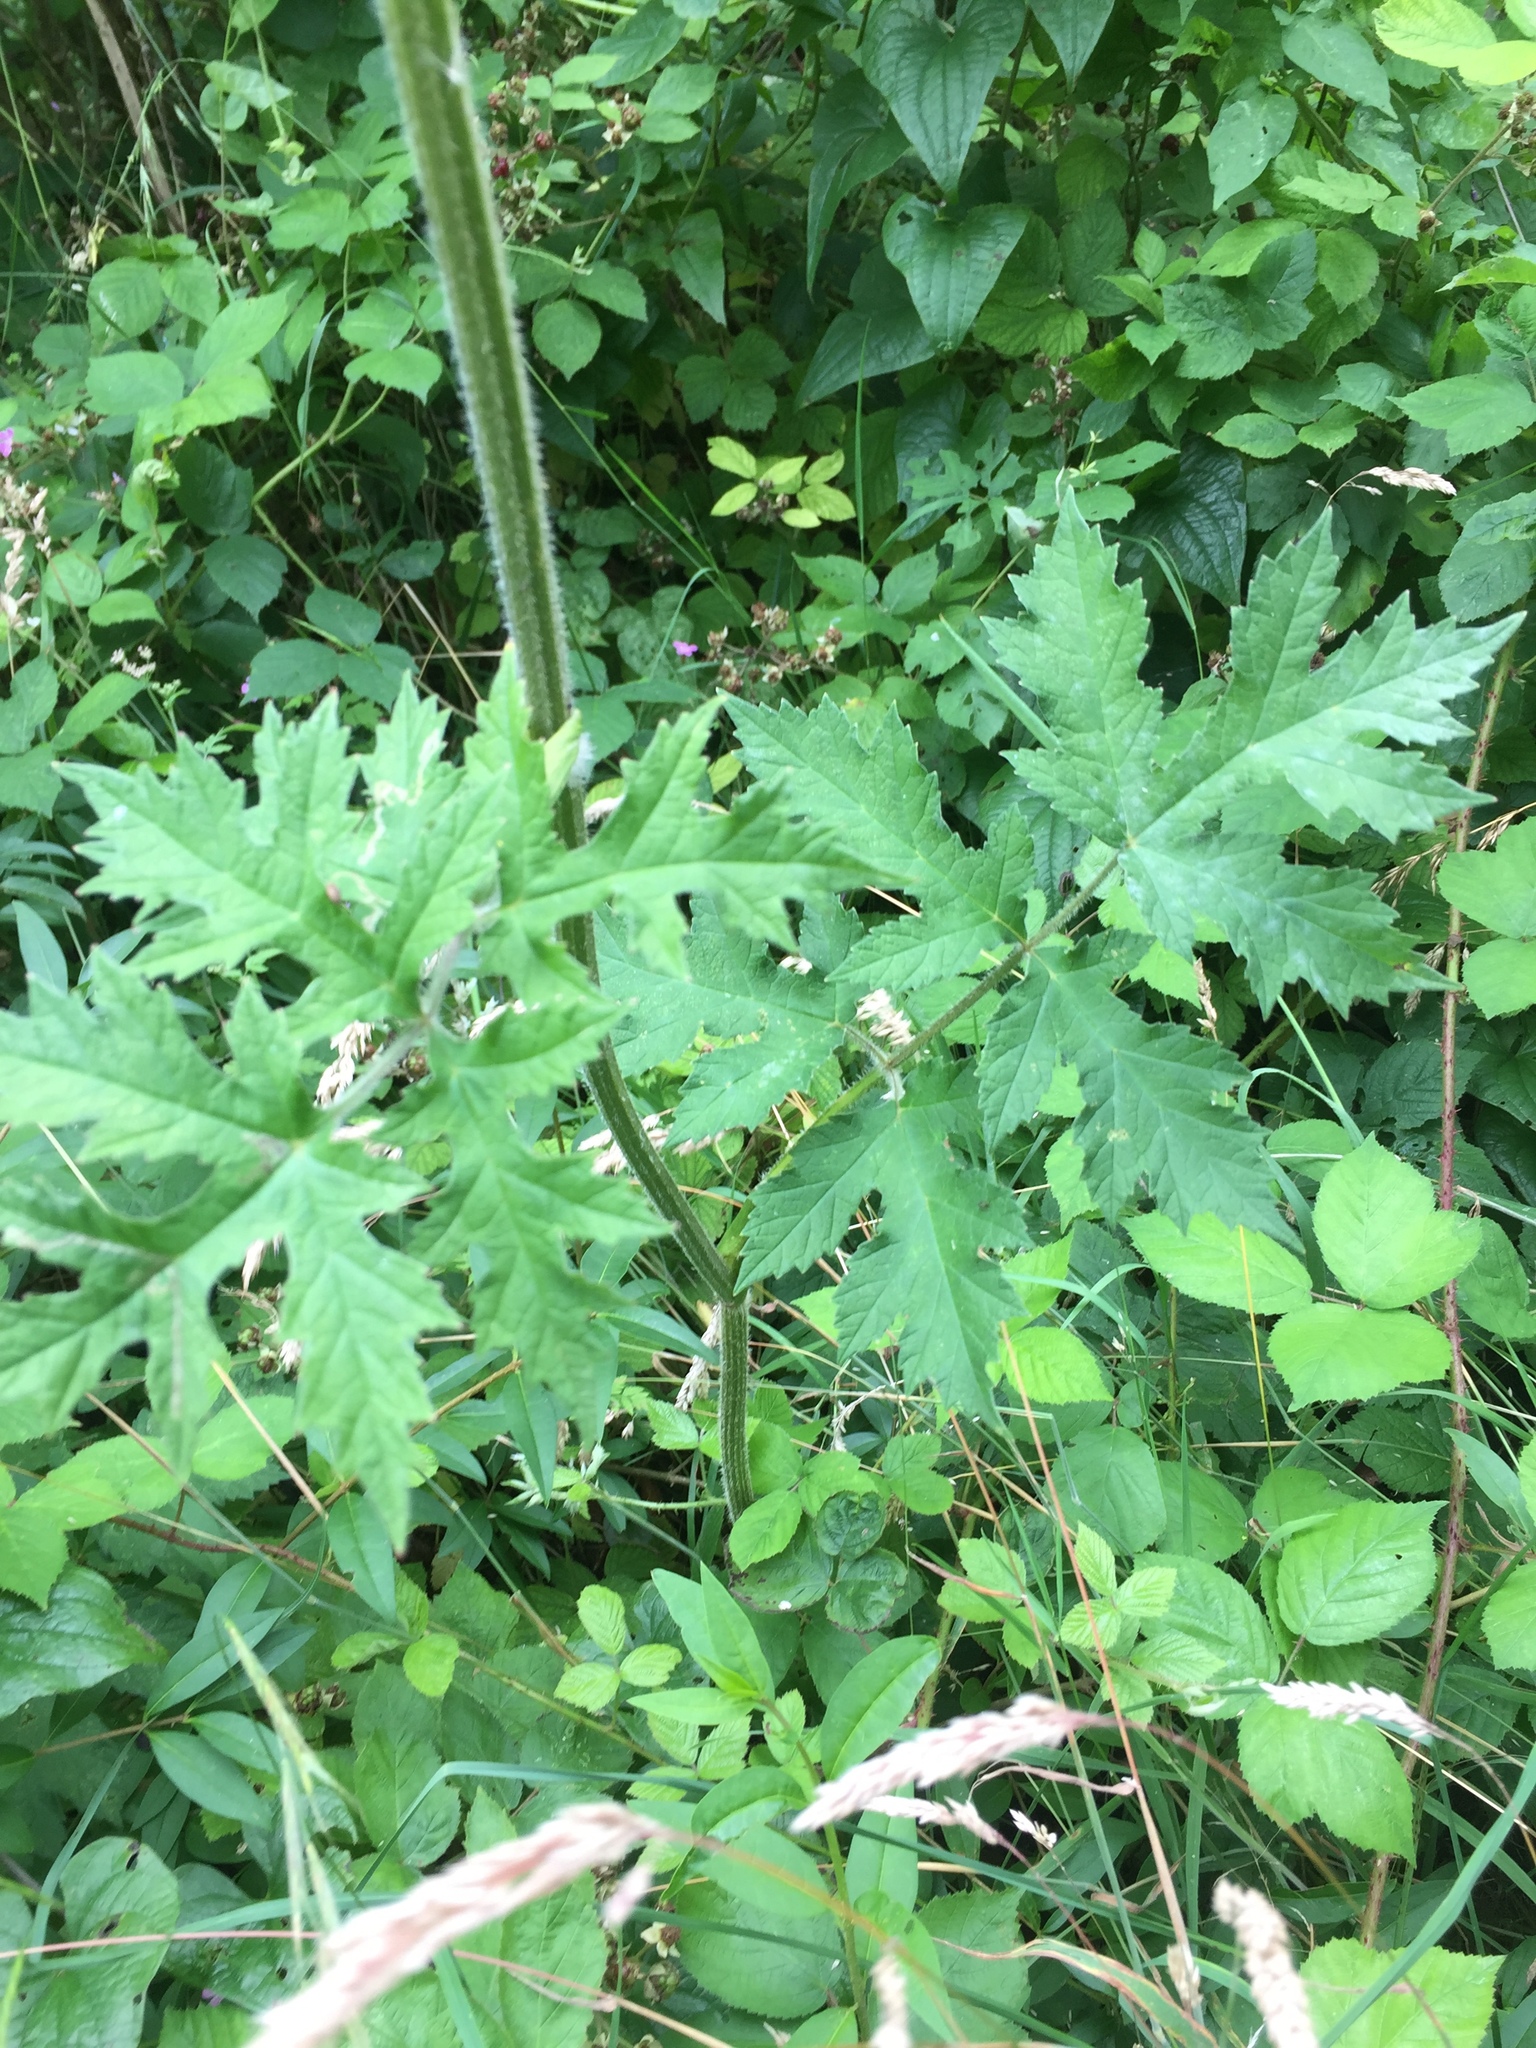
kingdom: Plantae
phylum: Tracheophyta
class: Magnoliopsida
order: Apiales
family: Apiaceae
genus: Heracleum
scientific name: Heracleum sphondylium
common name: Hogweed
